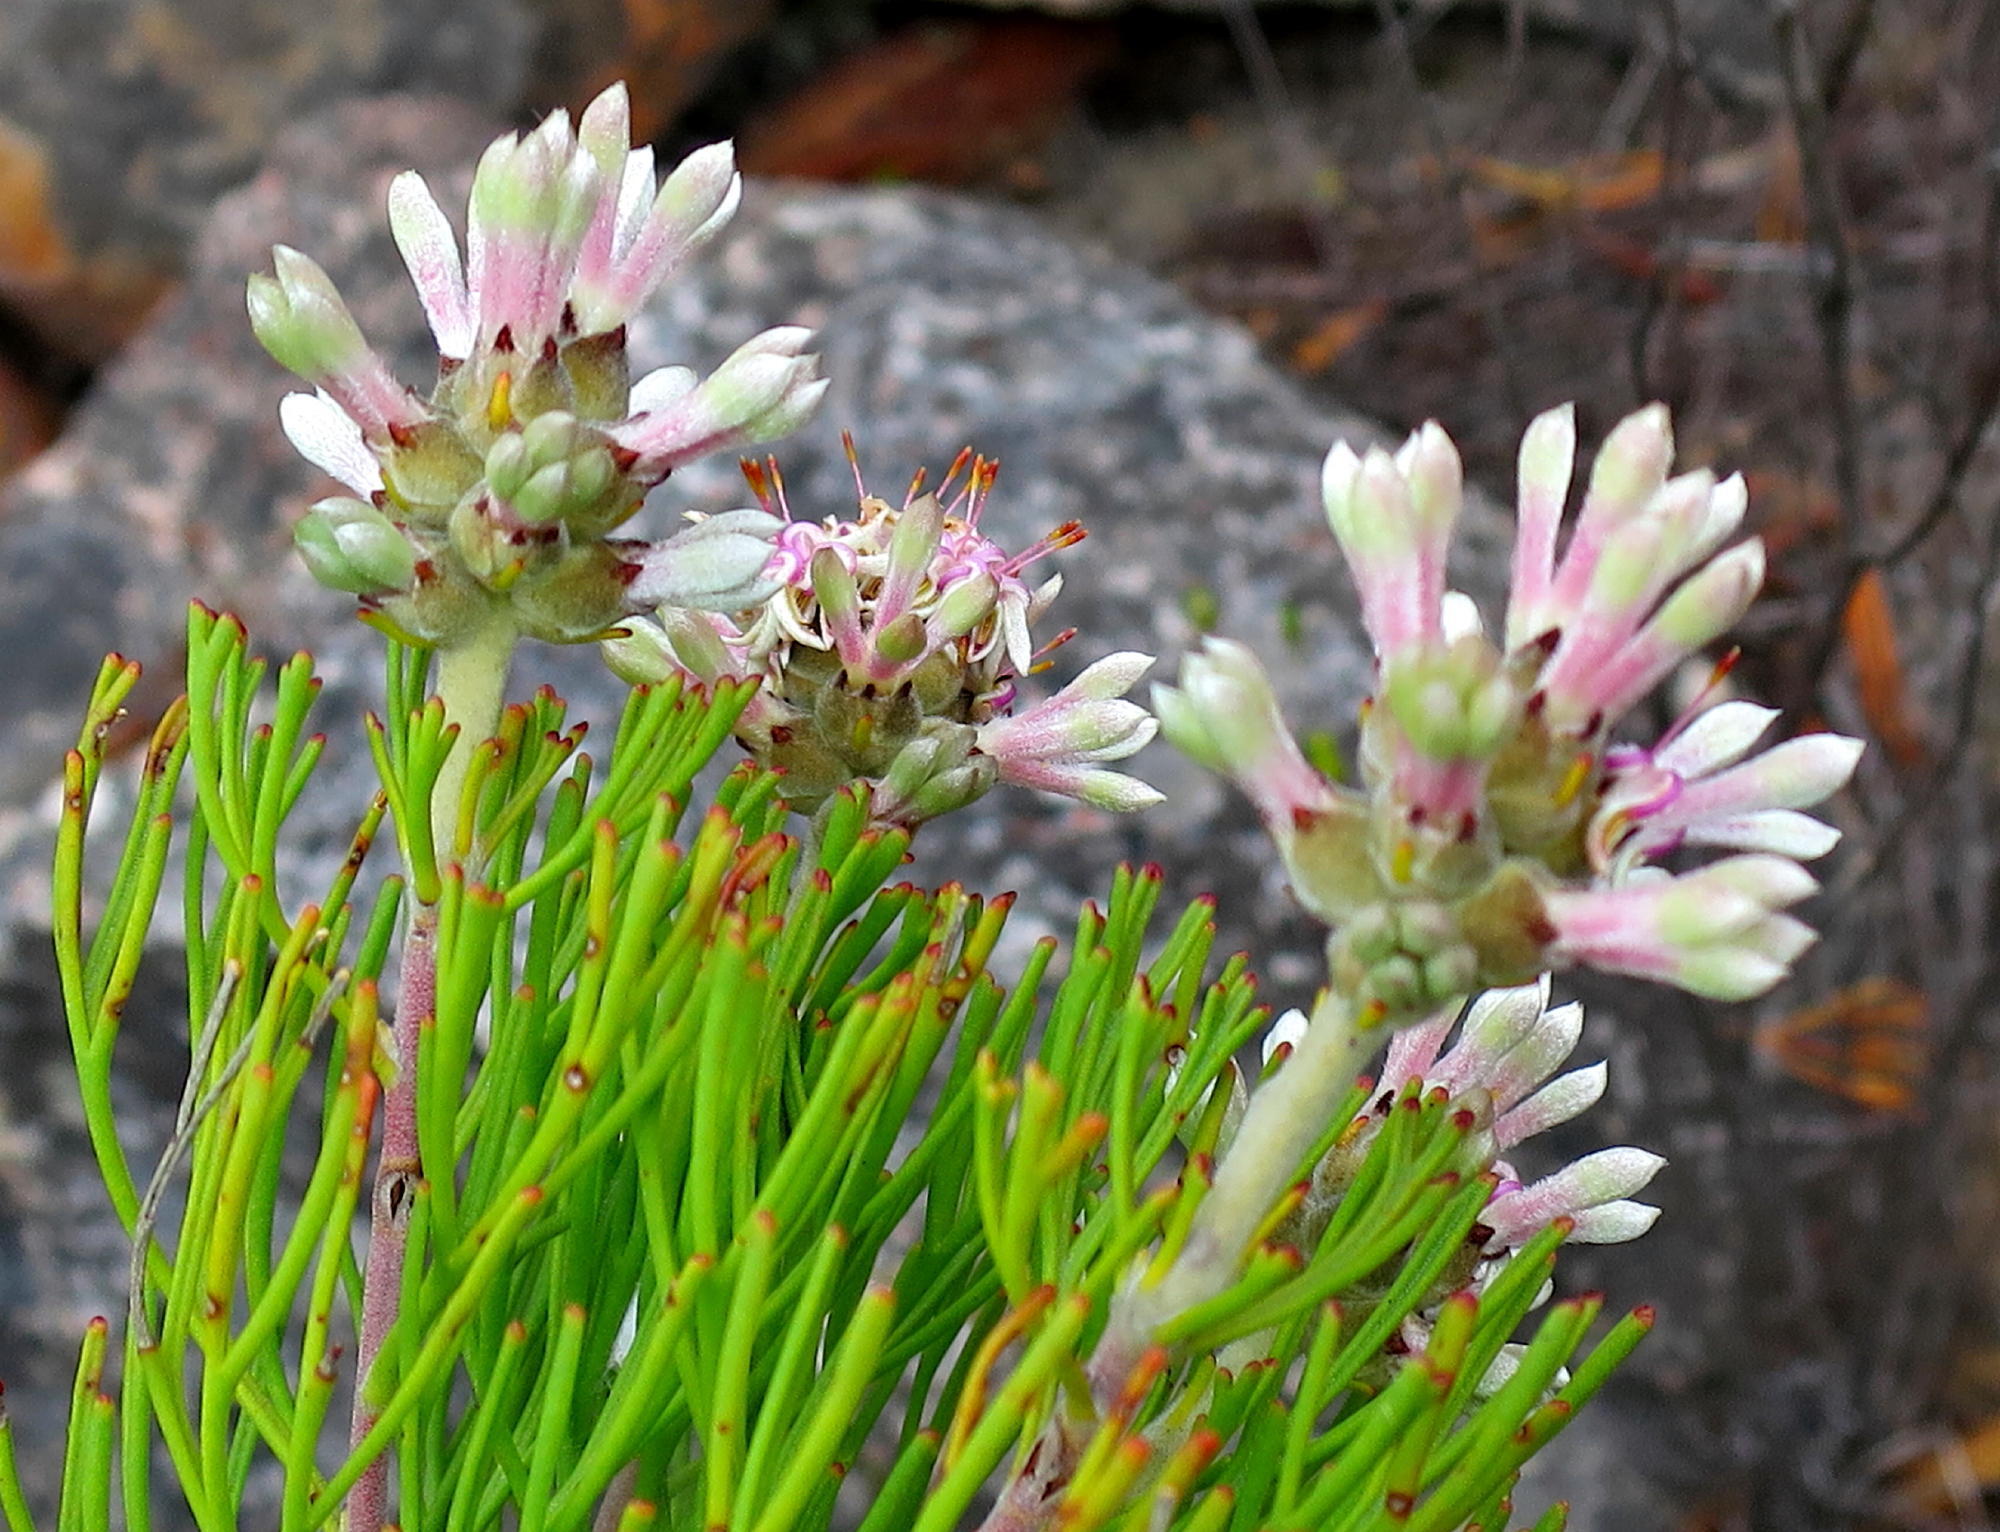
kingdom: Plantae
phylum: Tracheophyta
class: Magnoliopsida
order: Proteales
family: Proteaceae
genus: Paranomus
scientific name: Paranomus dregei
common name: Scented sceptre
